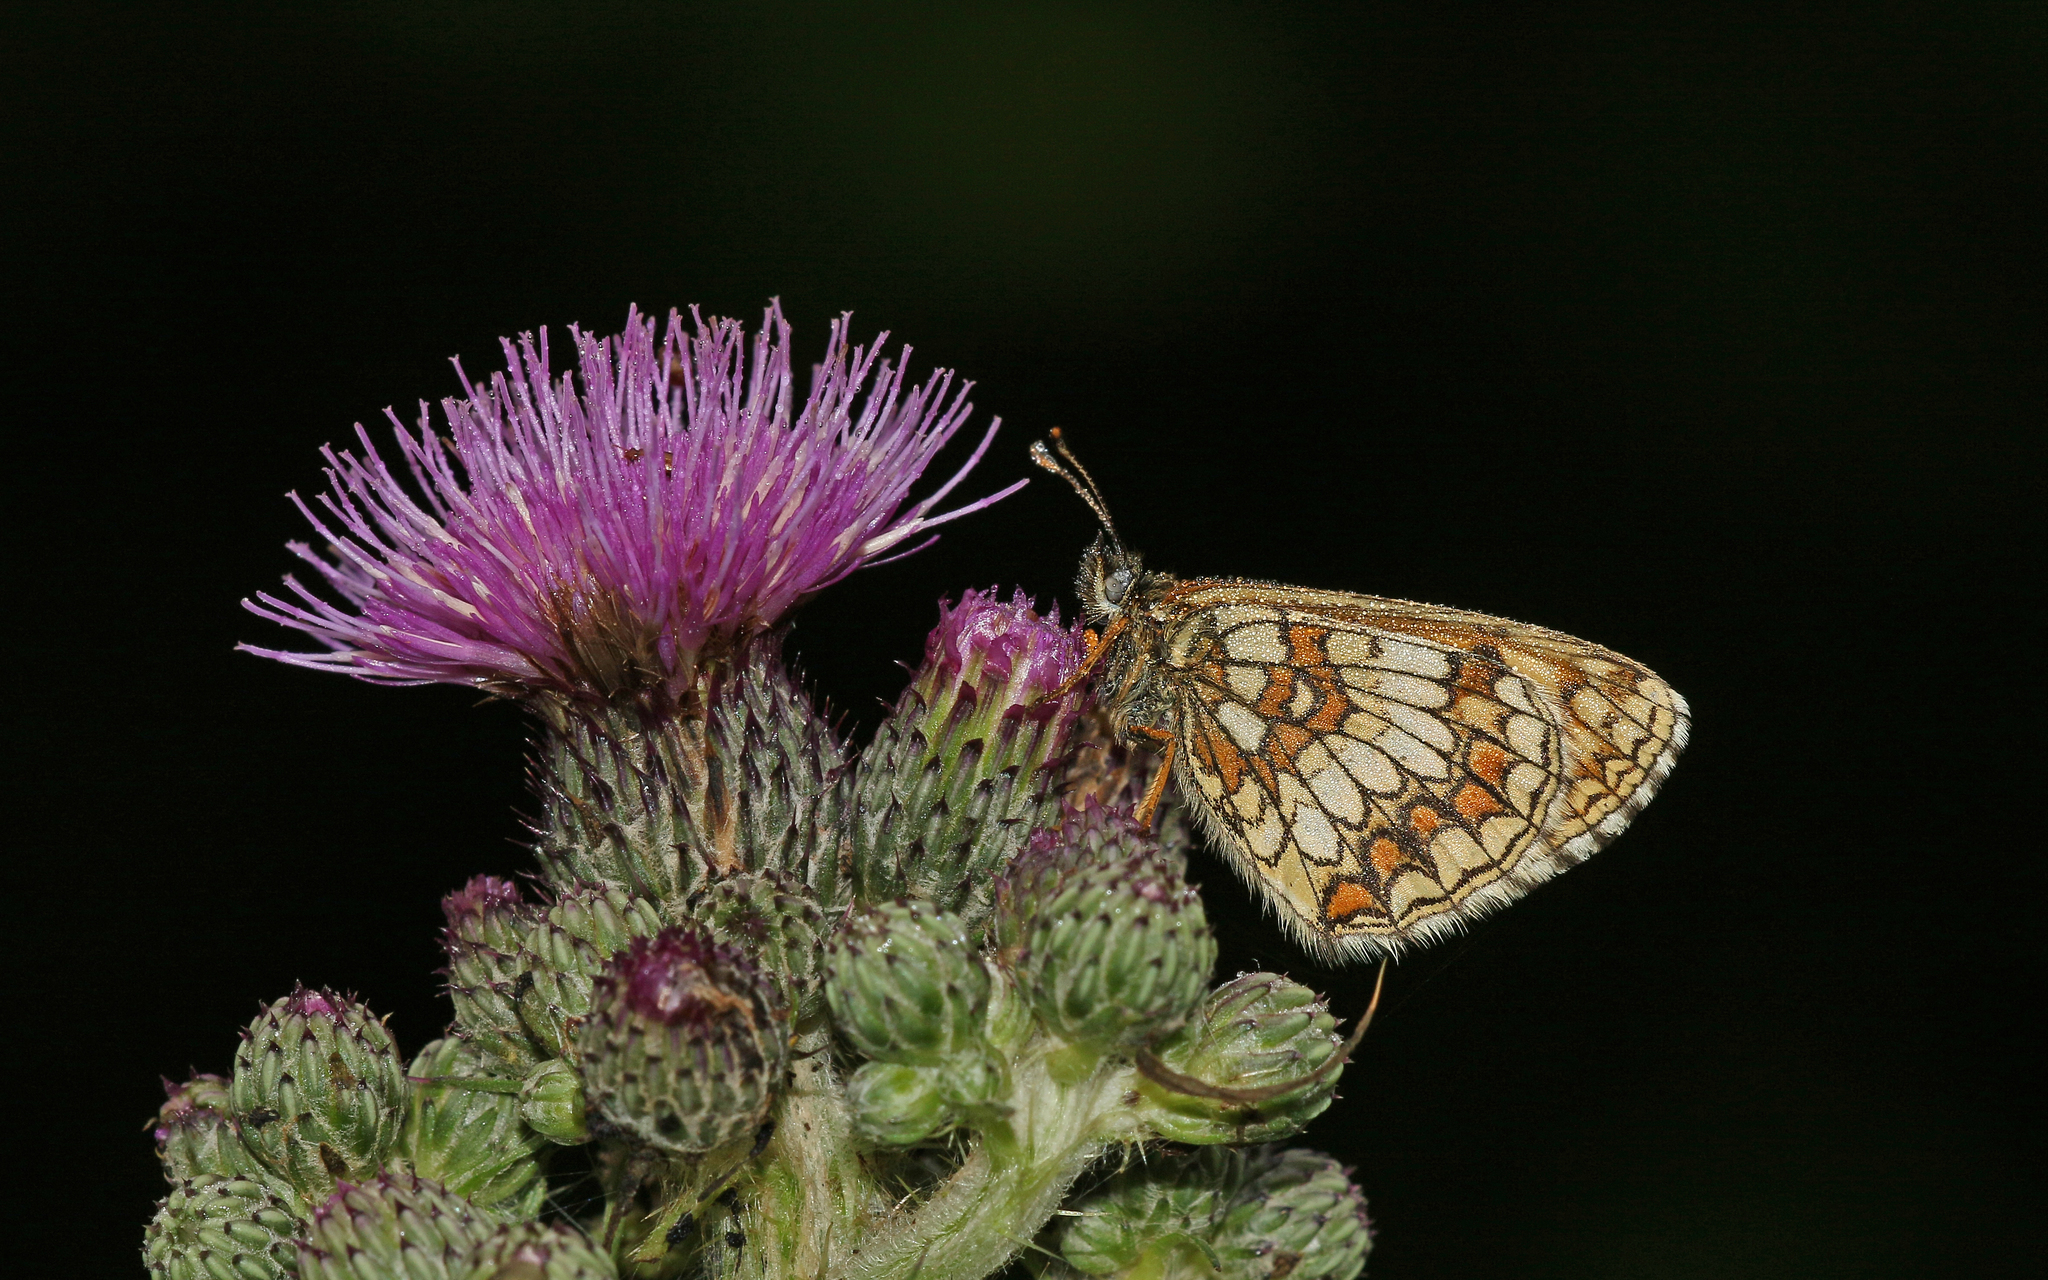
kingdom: Animalia
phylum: Arthropoda
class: Insecta
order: Lepidoptera
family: Nymphalidae
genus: Melitaea
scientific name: Melitaea athalia
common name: Heath fritillary
